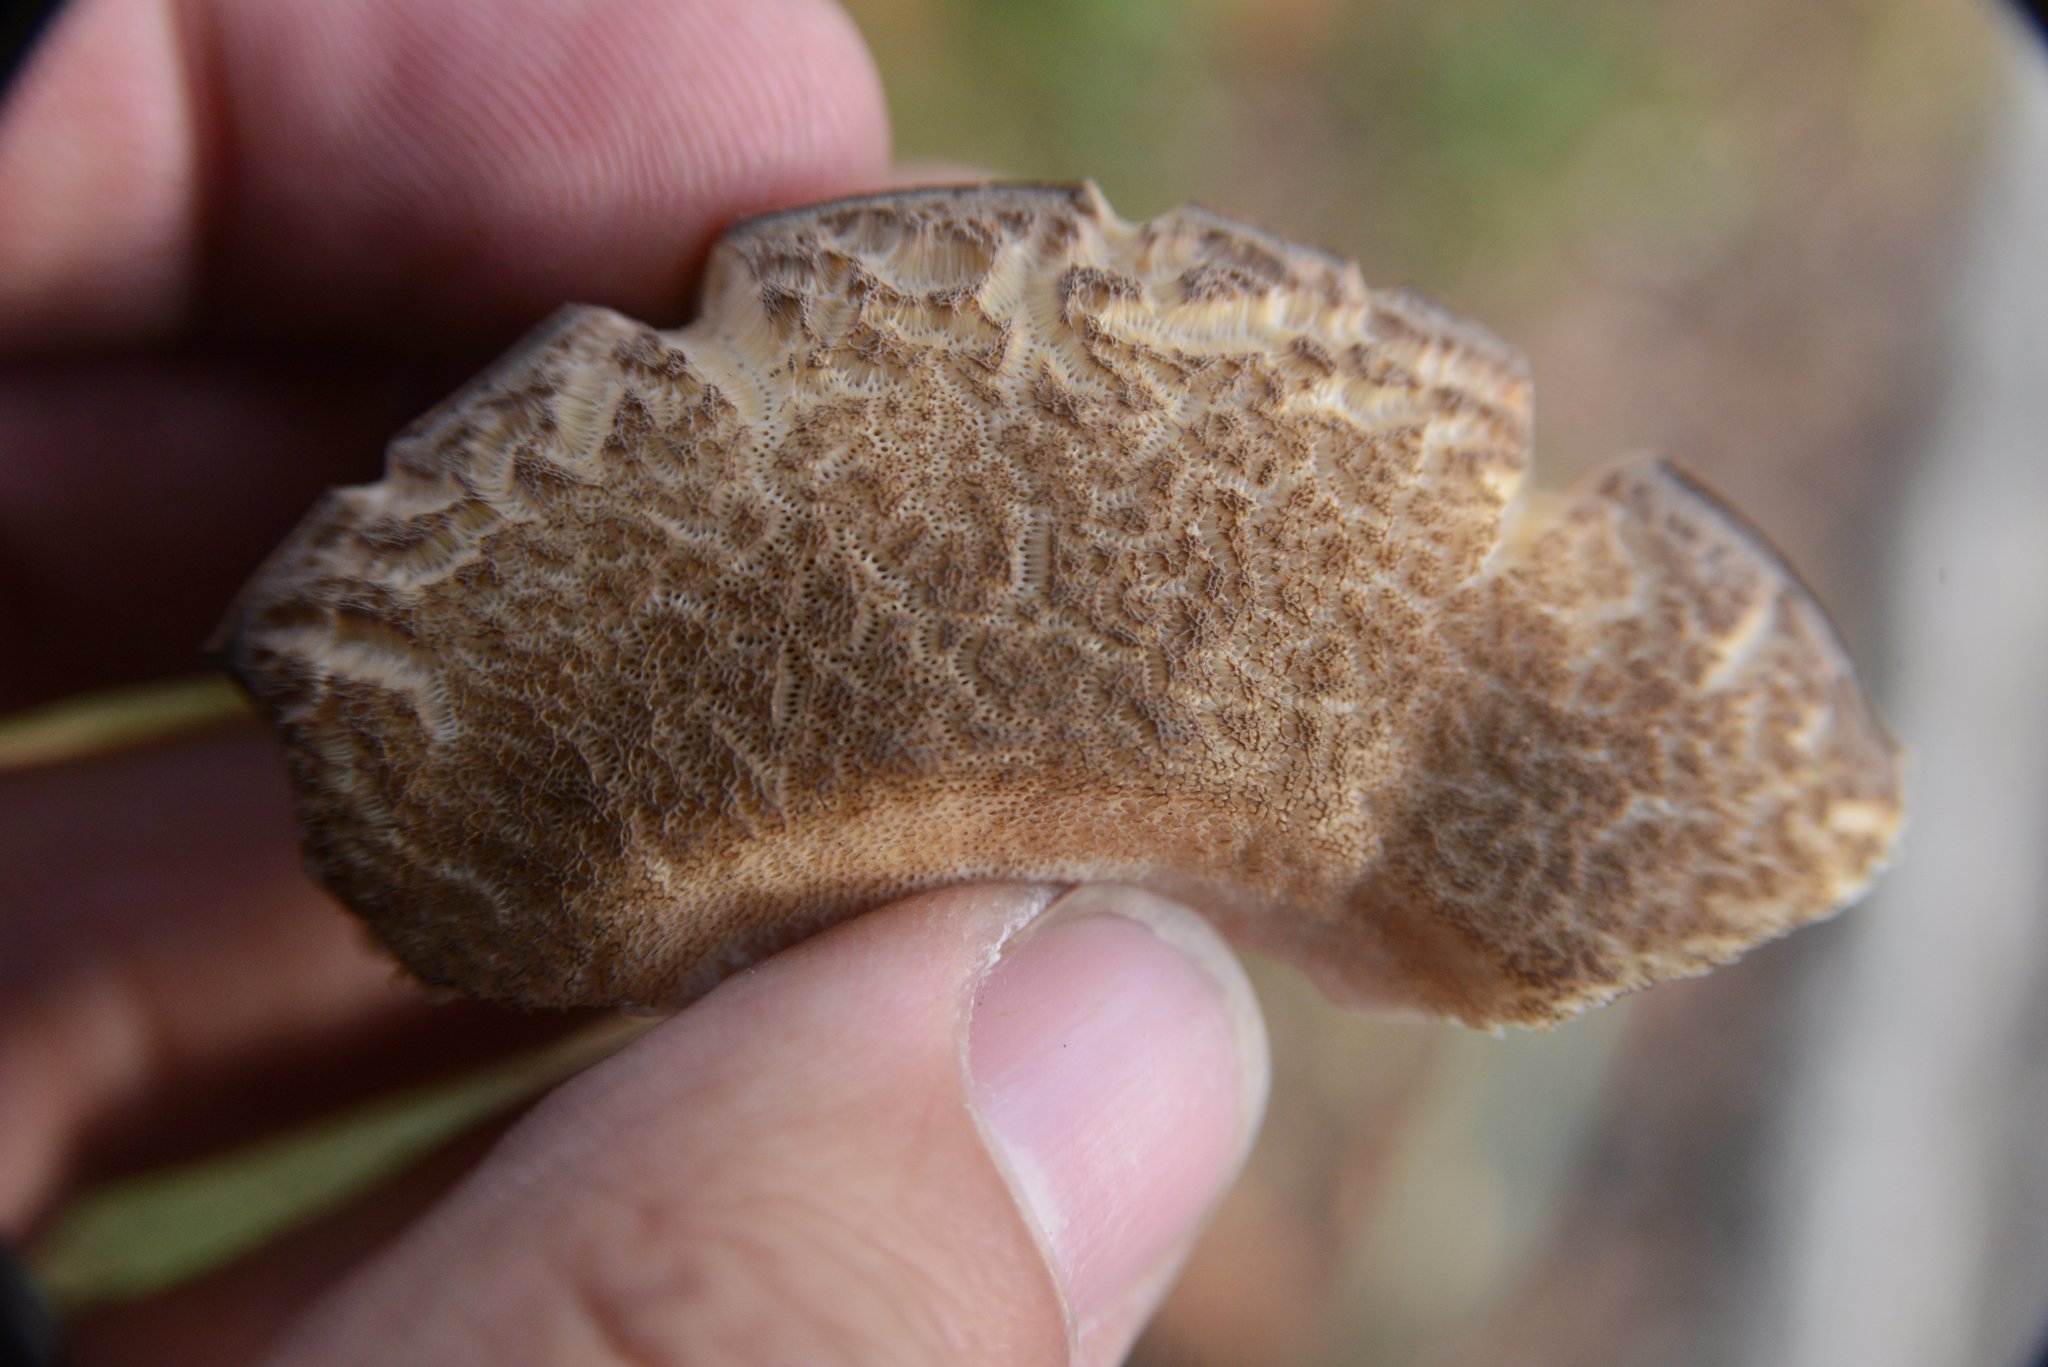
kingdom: Fungi
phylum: Basidiomycota
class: Agaricomycetes
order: Boletales
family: Boletaceae
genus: Leccinum
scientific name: Leccinum scabrum
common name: Blushing bolete
